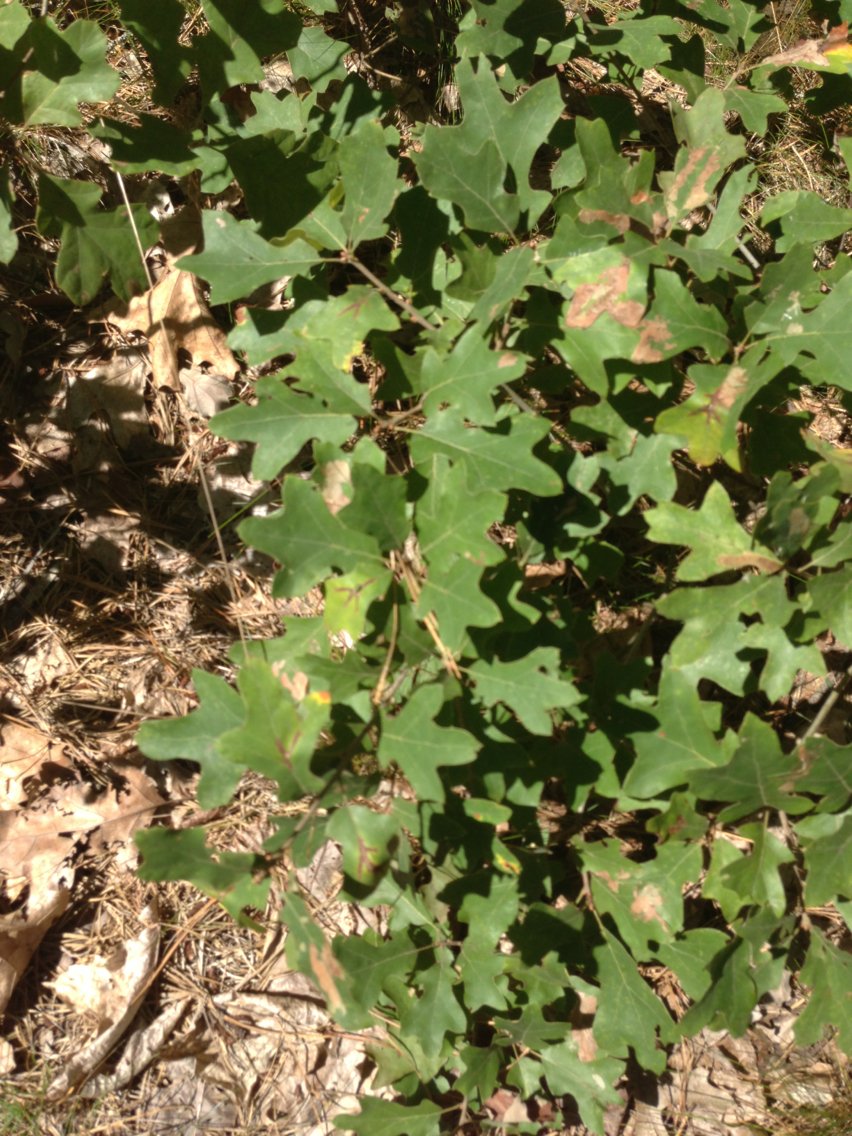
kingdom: Plantae
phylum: Tracheophyta
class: Magnoliopsida
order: Fagales
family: Fagaceae
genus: Quercus
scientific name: Quercus ilicifolia
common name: Bear oak
